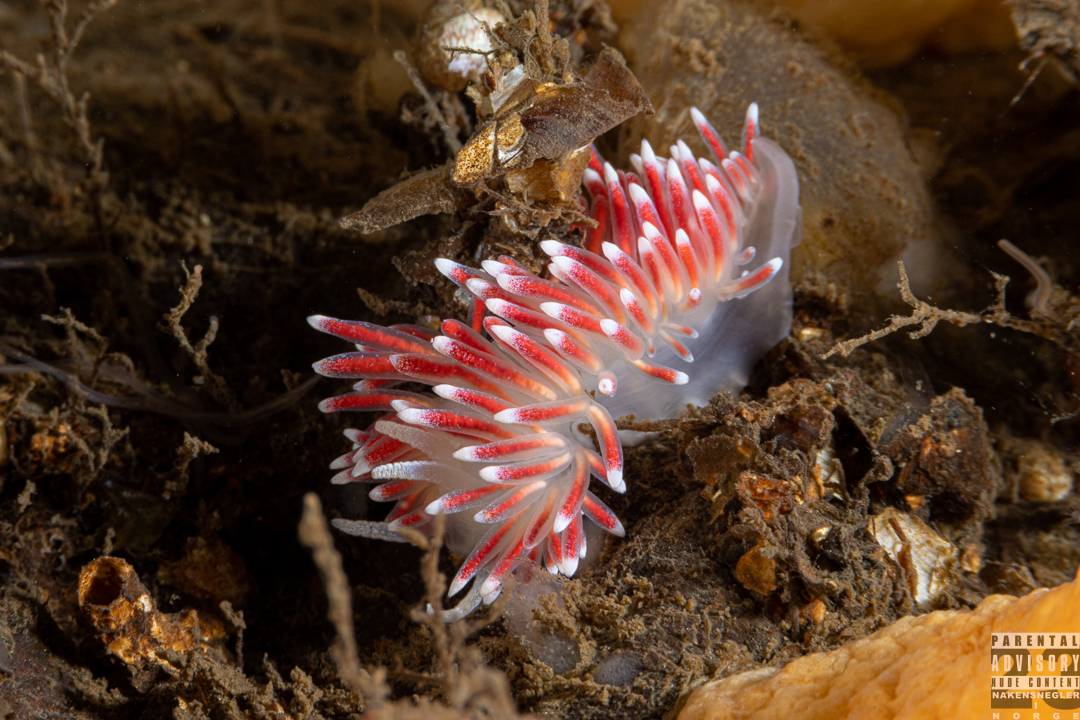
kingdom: Animalia
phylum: Mollusca
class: Gastropoda
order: Nudibranchia
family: Flabellinidae
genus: Carronella
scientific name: Carronella pellucida
